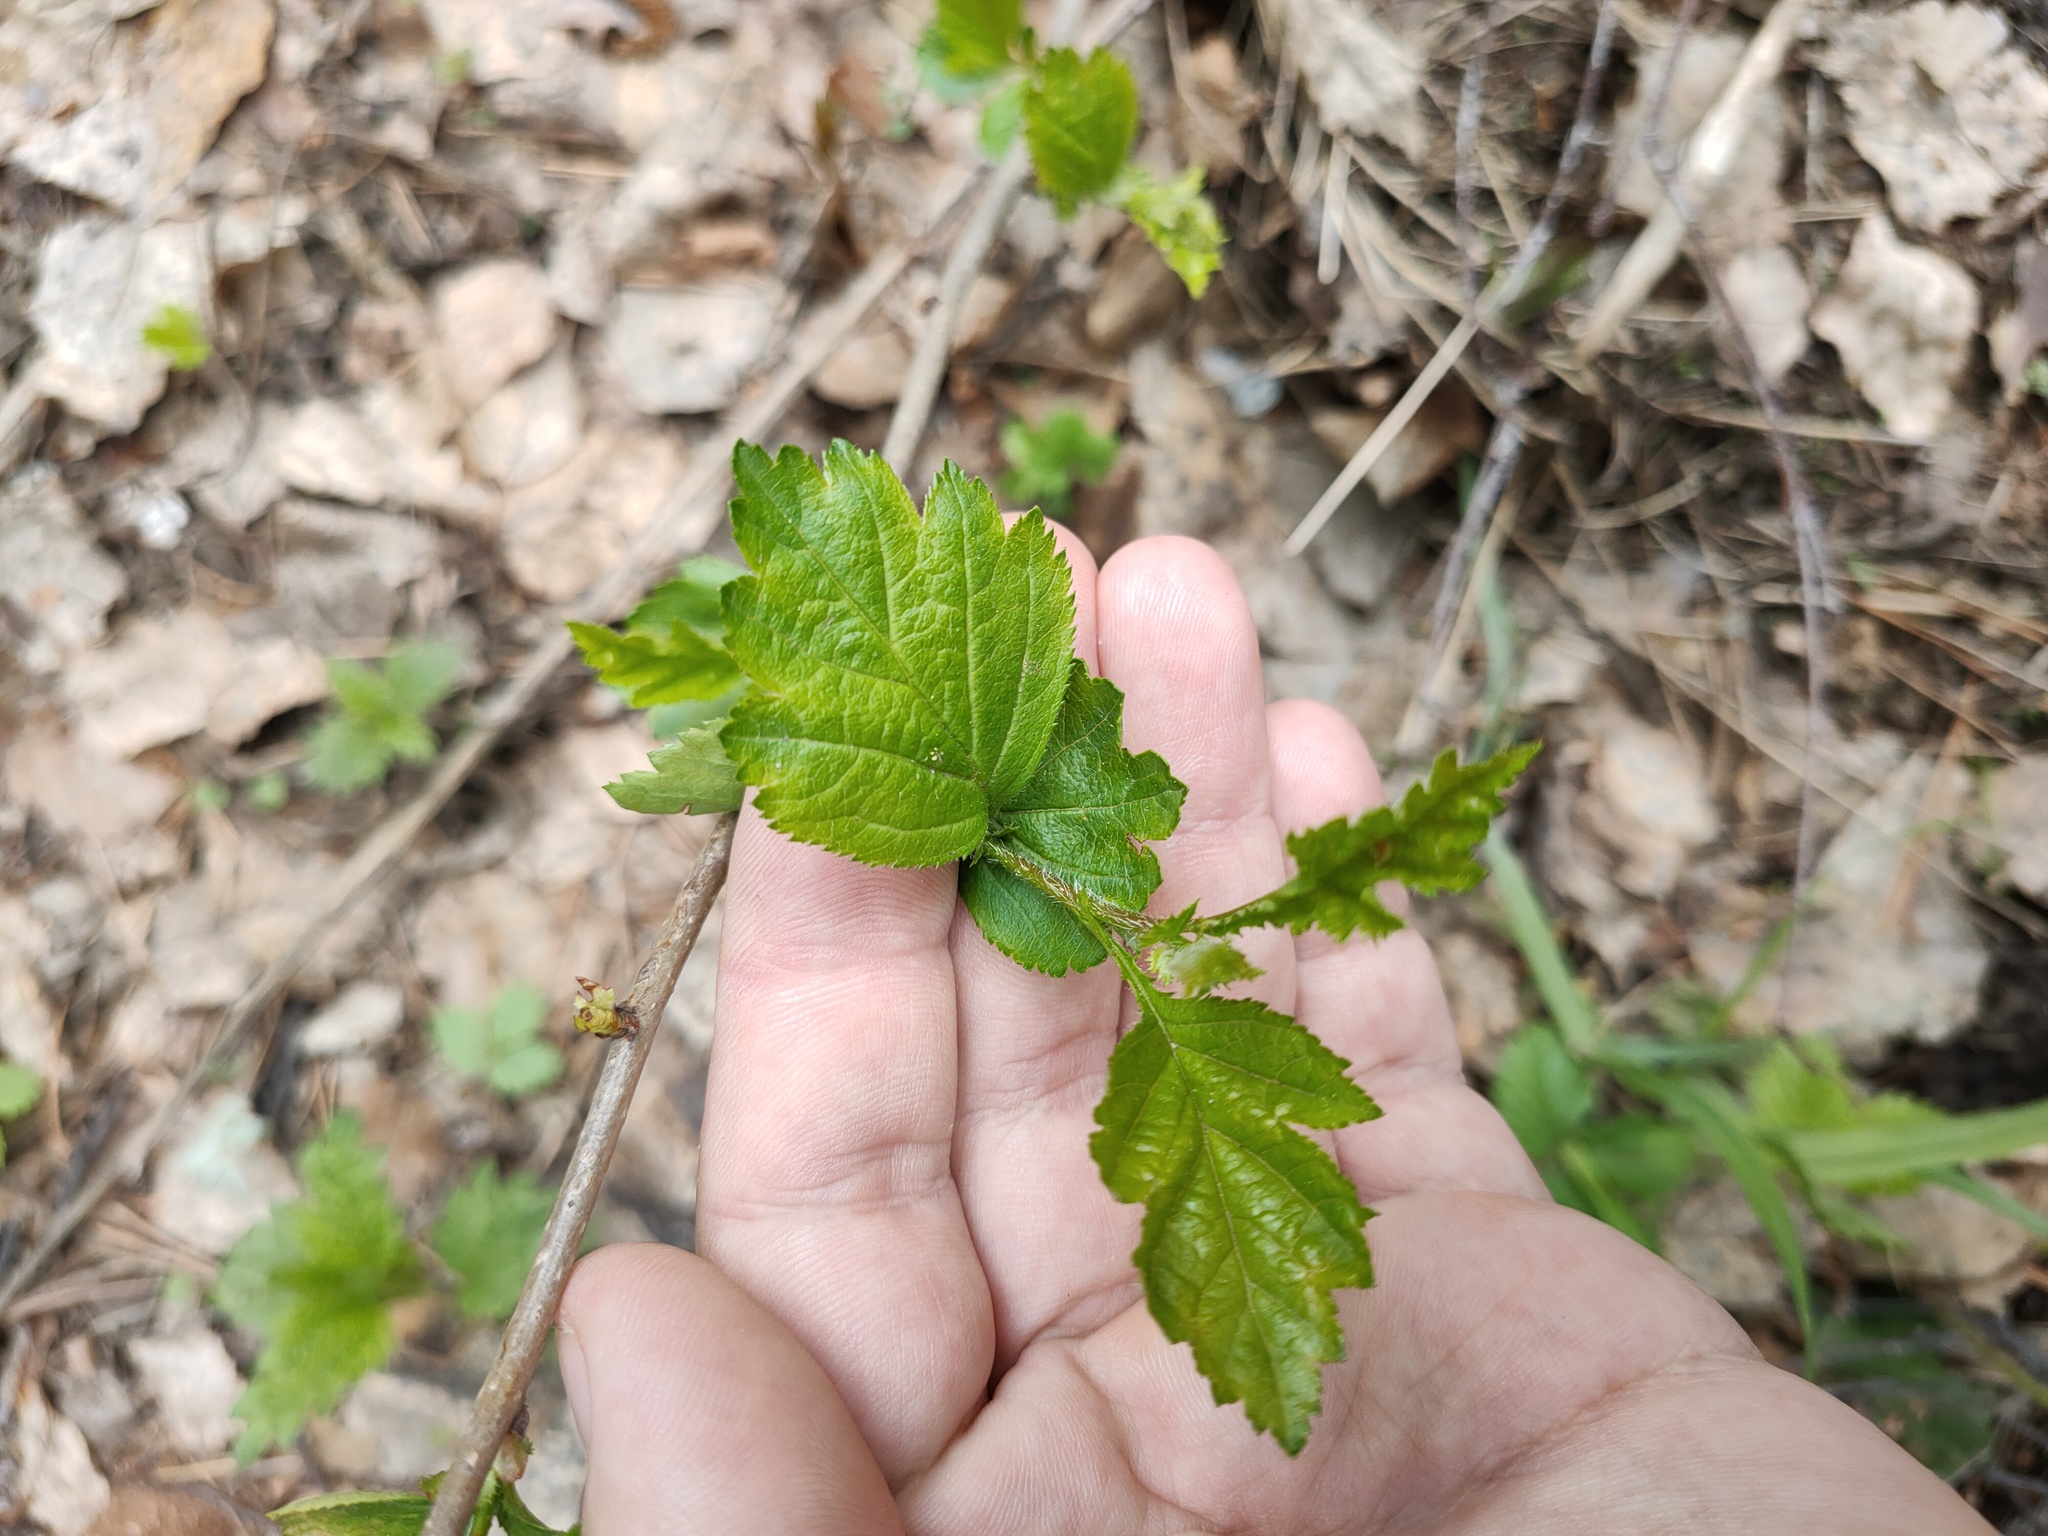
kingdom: Plantae
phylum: Tracheophyta
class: Magnoliopsida
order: Rosales
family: Rosaceae
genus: Crataegus
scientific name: Crataegus sanguinea
